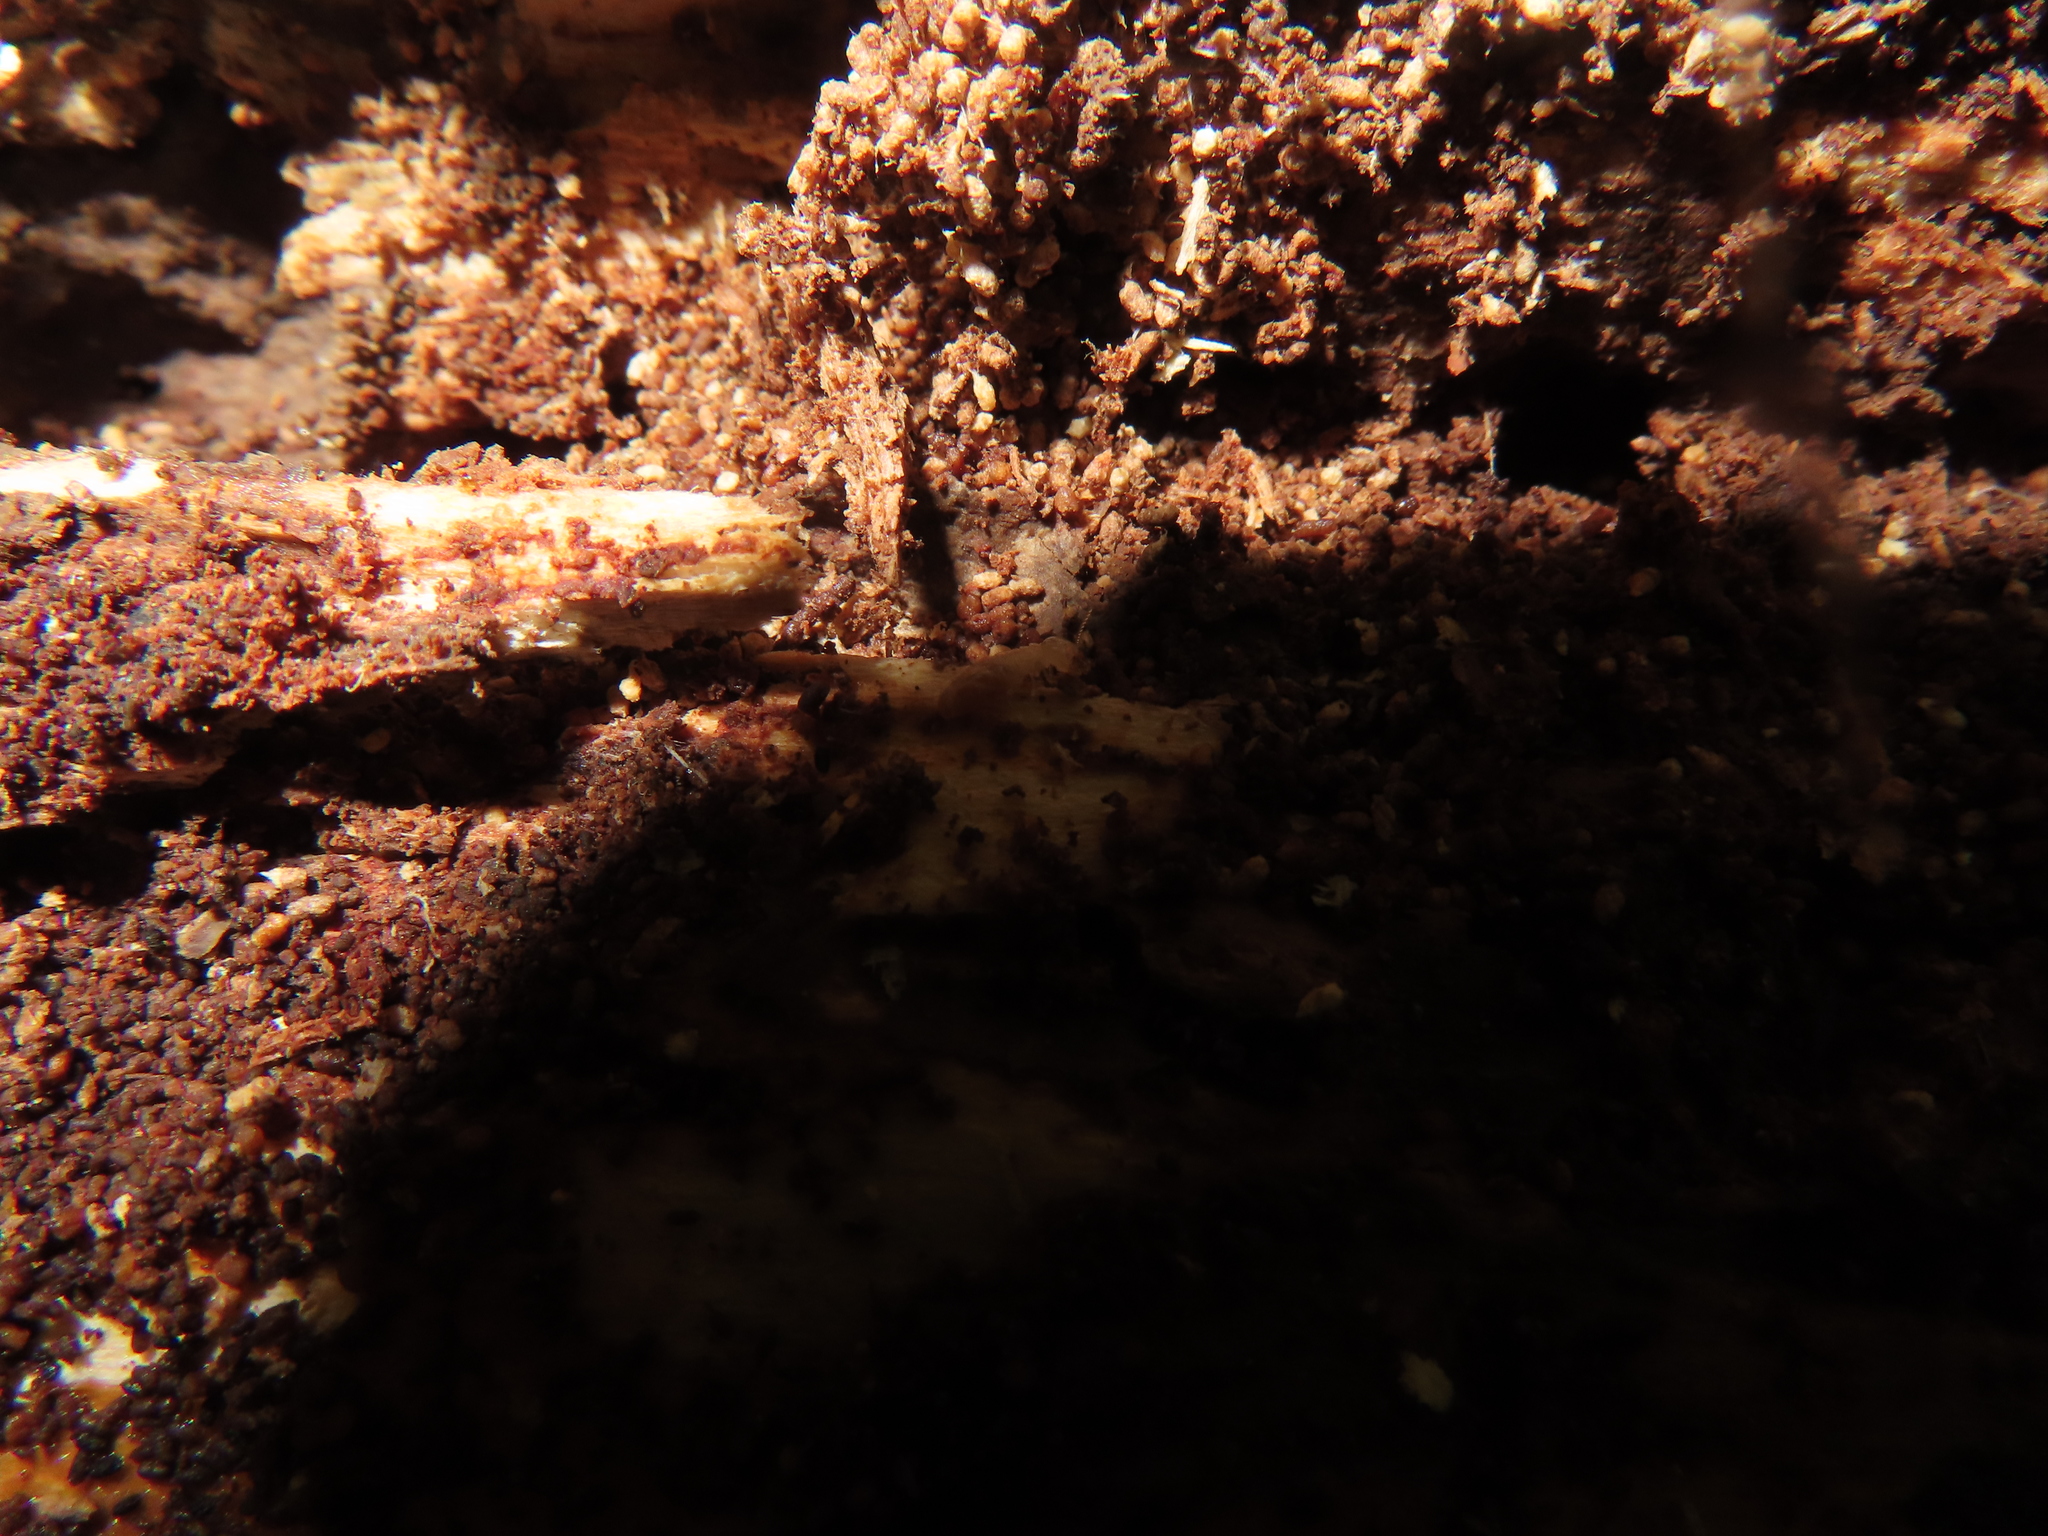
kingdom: Animalia
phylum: Arthropoda
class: Insecta
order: Blattodea
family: Rhinotermitidae
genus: Reticulitermes
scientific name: Reticulitermes flavipes
